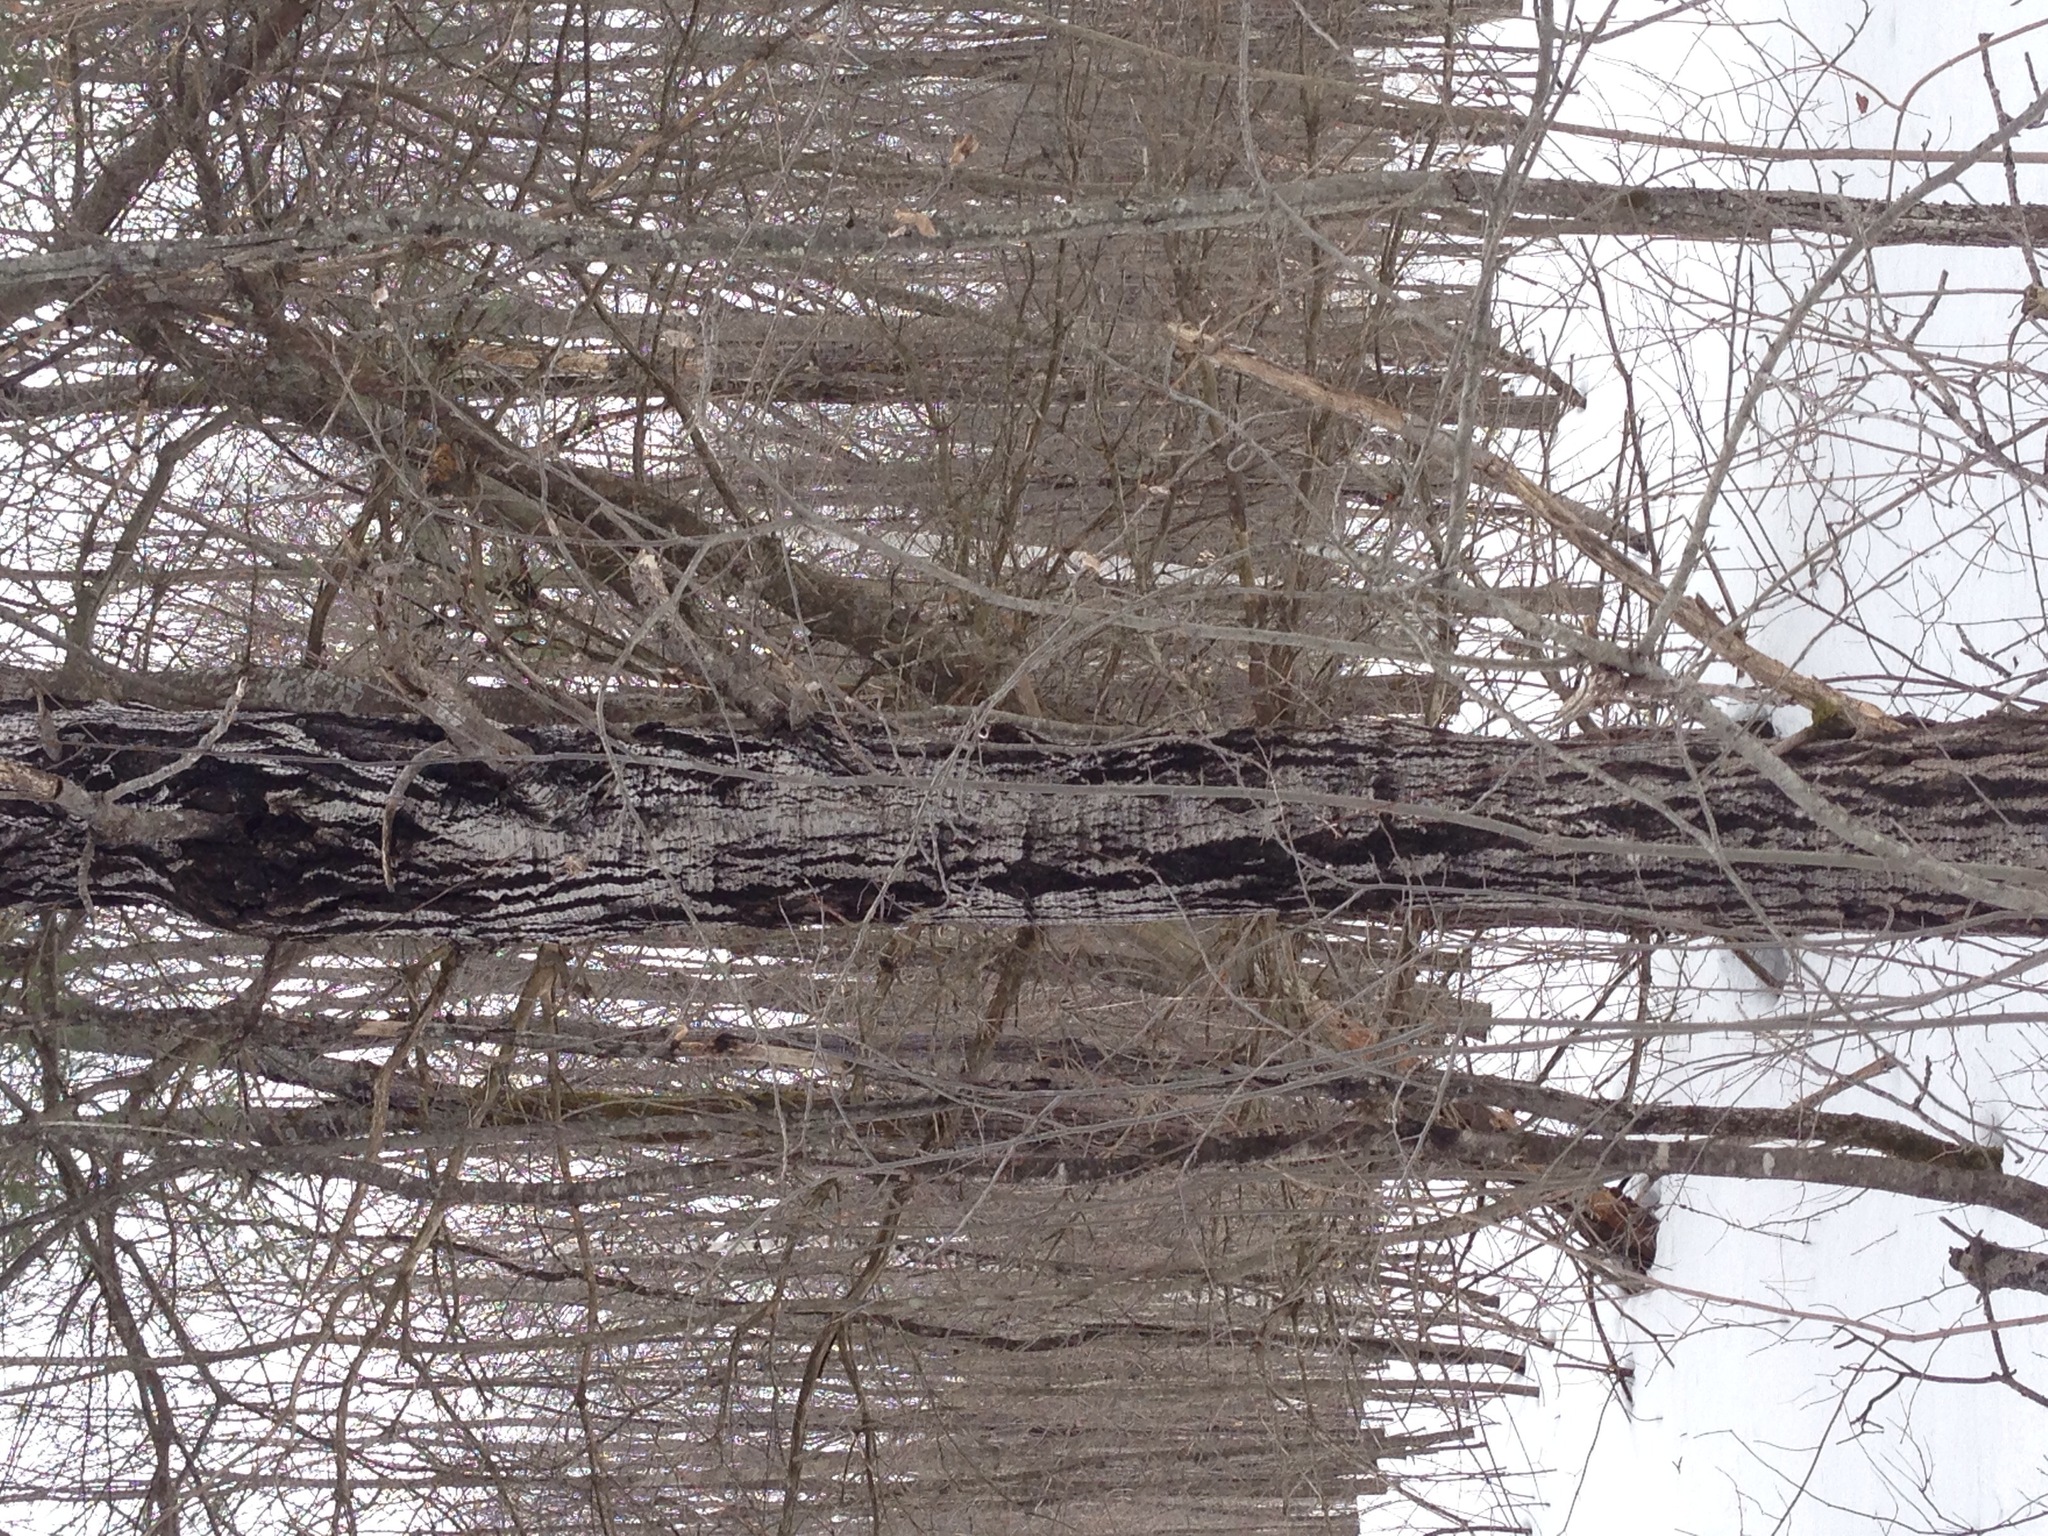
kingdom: Plantae
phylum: Tracheophyta
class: Magnoliopsida
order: Fagales
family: Juglandaceae
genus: Juglans
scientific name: Juglans cinerea
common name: Butternut
